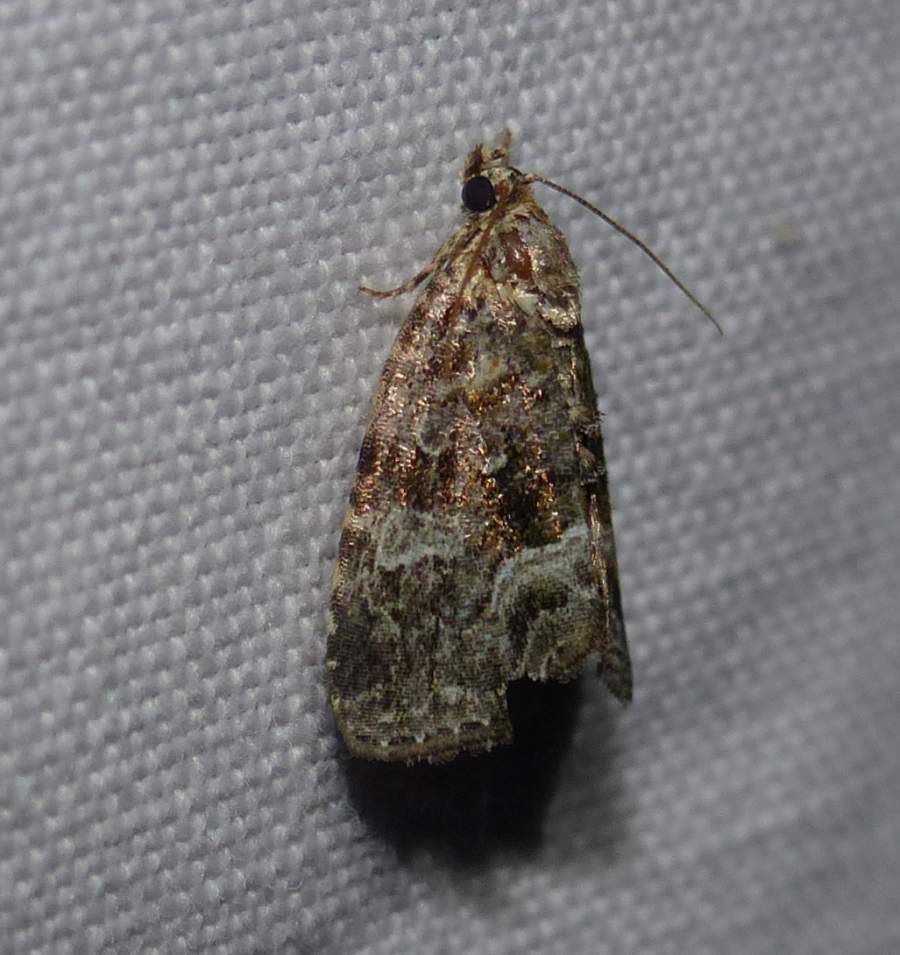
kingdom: Animalia
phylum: Arthropoda
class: Insecta
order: Lepidoptera
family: Noctuidae
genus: Protodeltote
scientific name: Protodeltote muscosula
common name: Large mossy glyph
